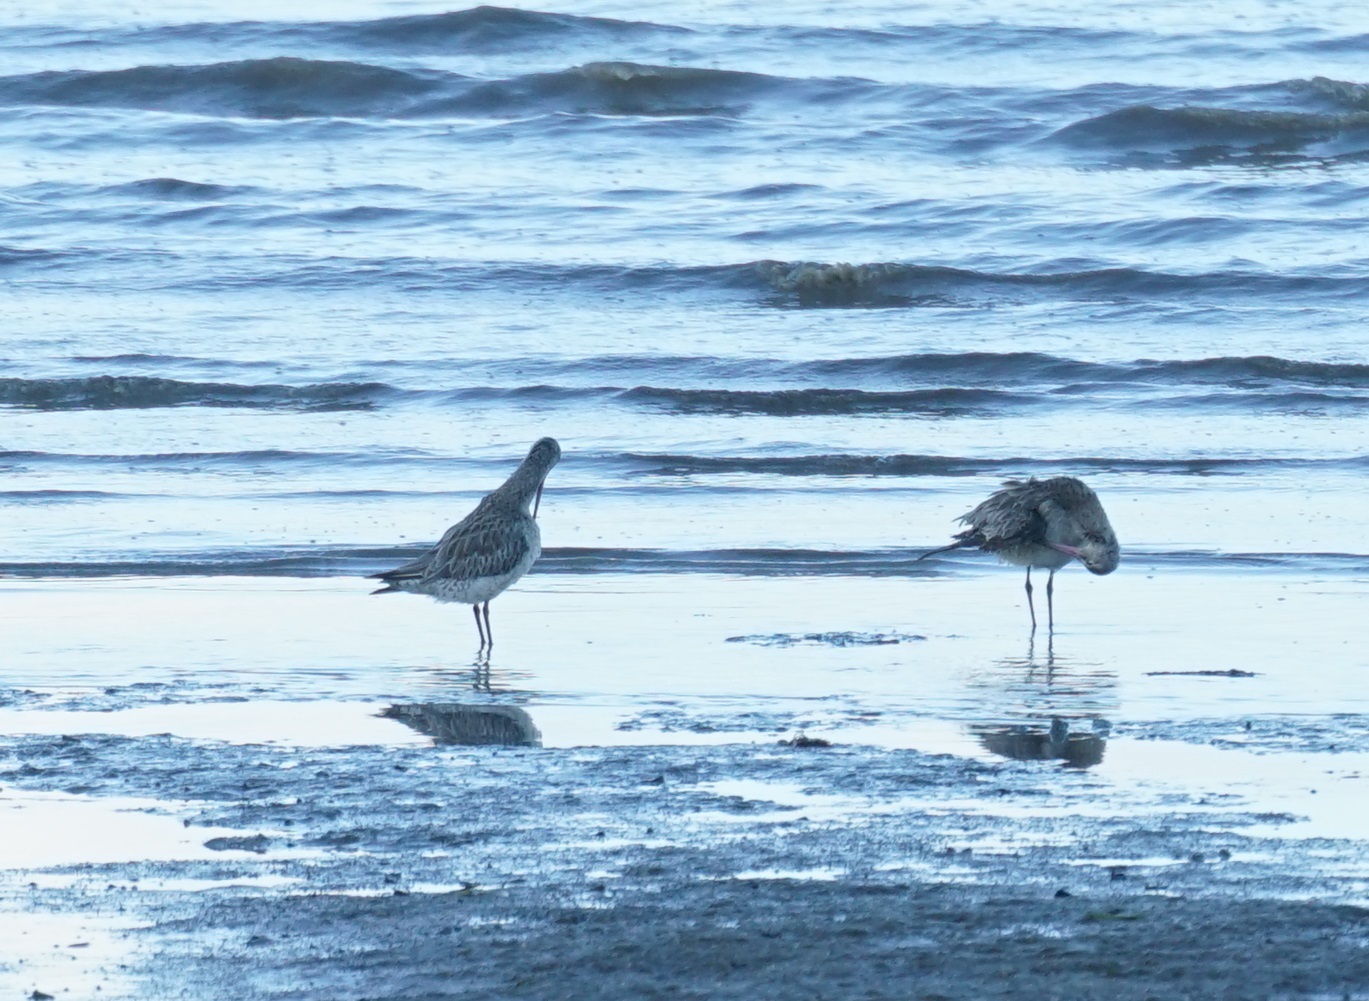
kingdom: Animalia
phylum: Chordata
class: Aves
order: Charadriiformes
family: Scolopacidae
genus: Limosa
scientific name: Limosa lapponica
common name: Bar-tailed godwit
